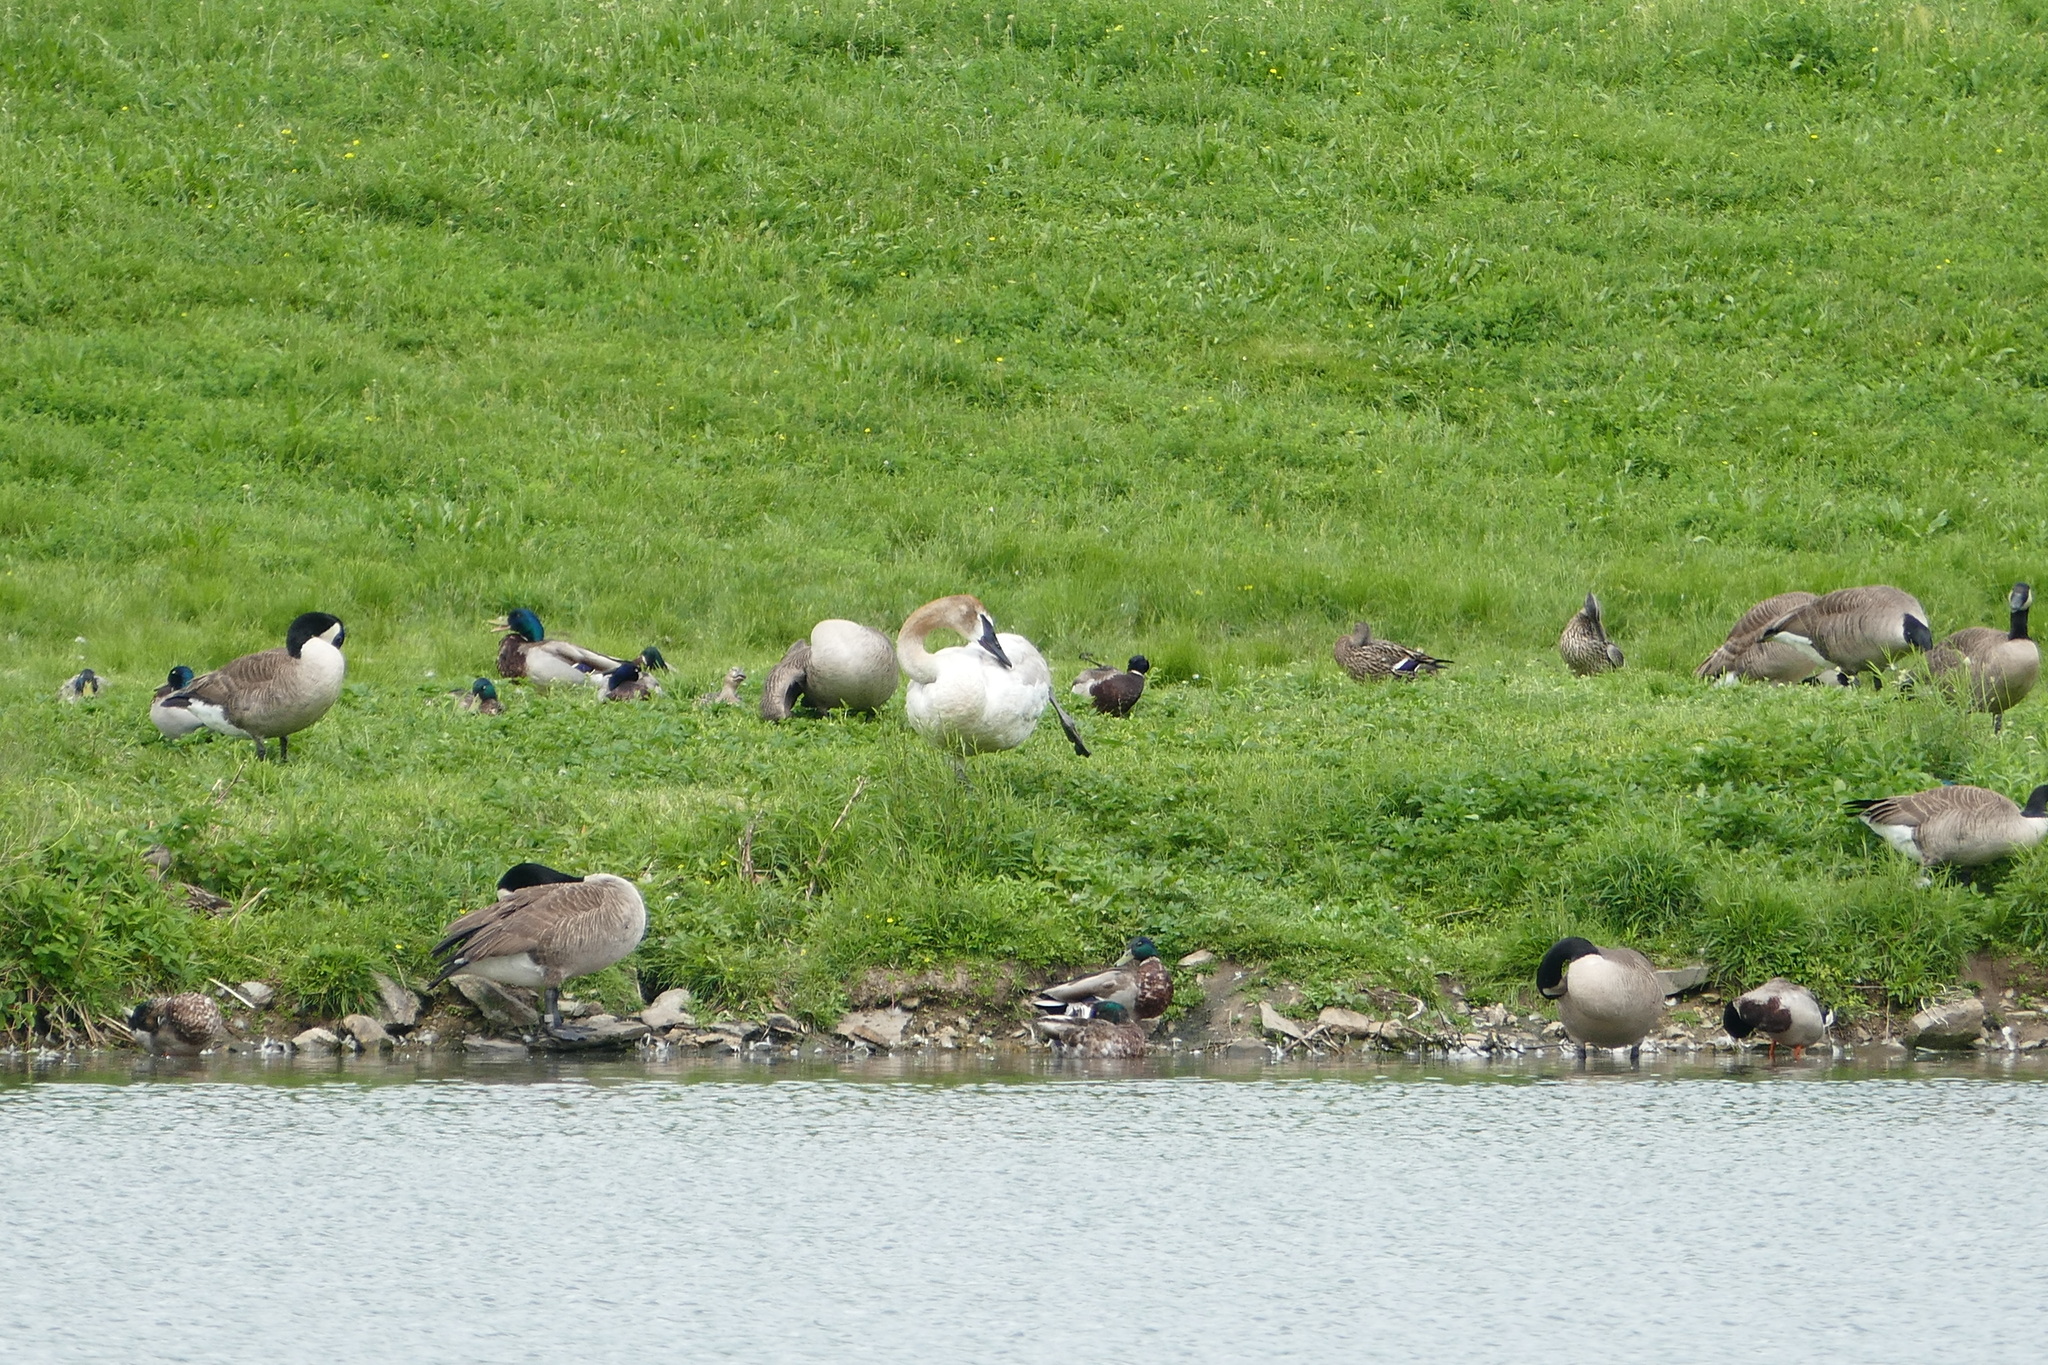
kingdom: Animalia
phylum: Chordata
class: Aves
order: Anseriformes
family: Anatidae
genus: Branta
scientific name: Branta canadensis
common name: Canada goose
